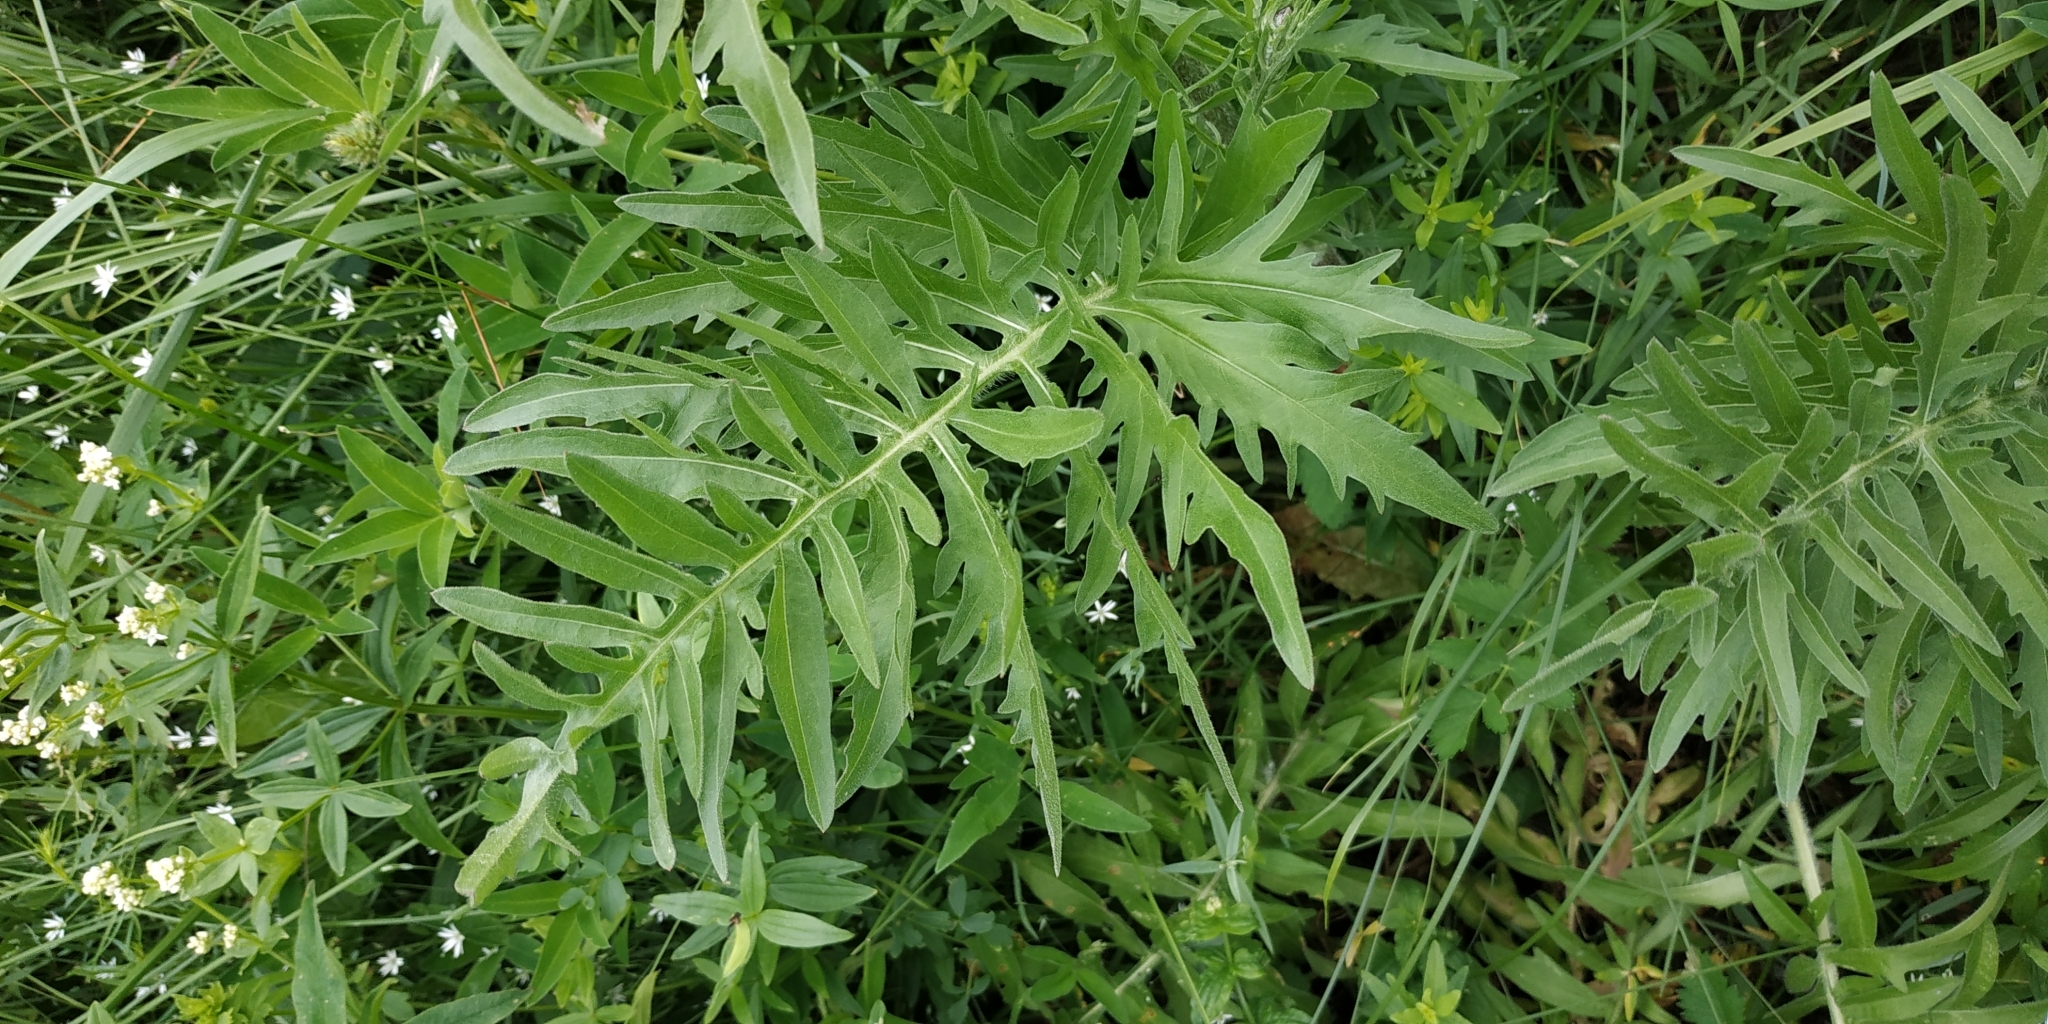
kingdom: Plantae
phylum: Tracheophyta
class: Magnoliopsida
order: Asterales
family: Asteraceae
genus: Centaurea
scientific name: Centaurea scabiosa
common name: Greater knapweed
